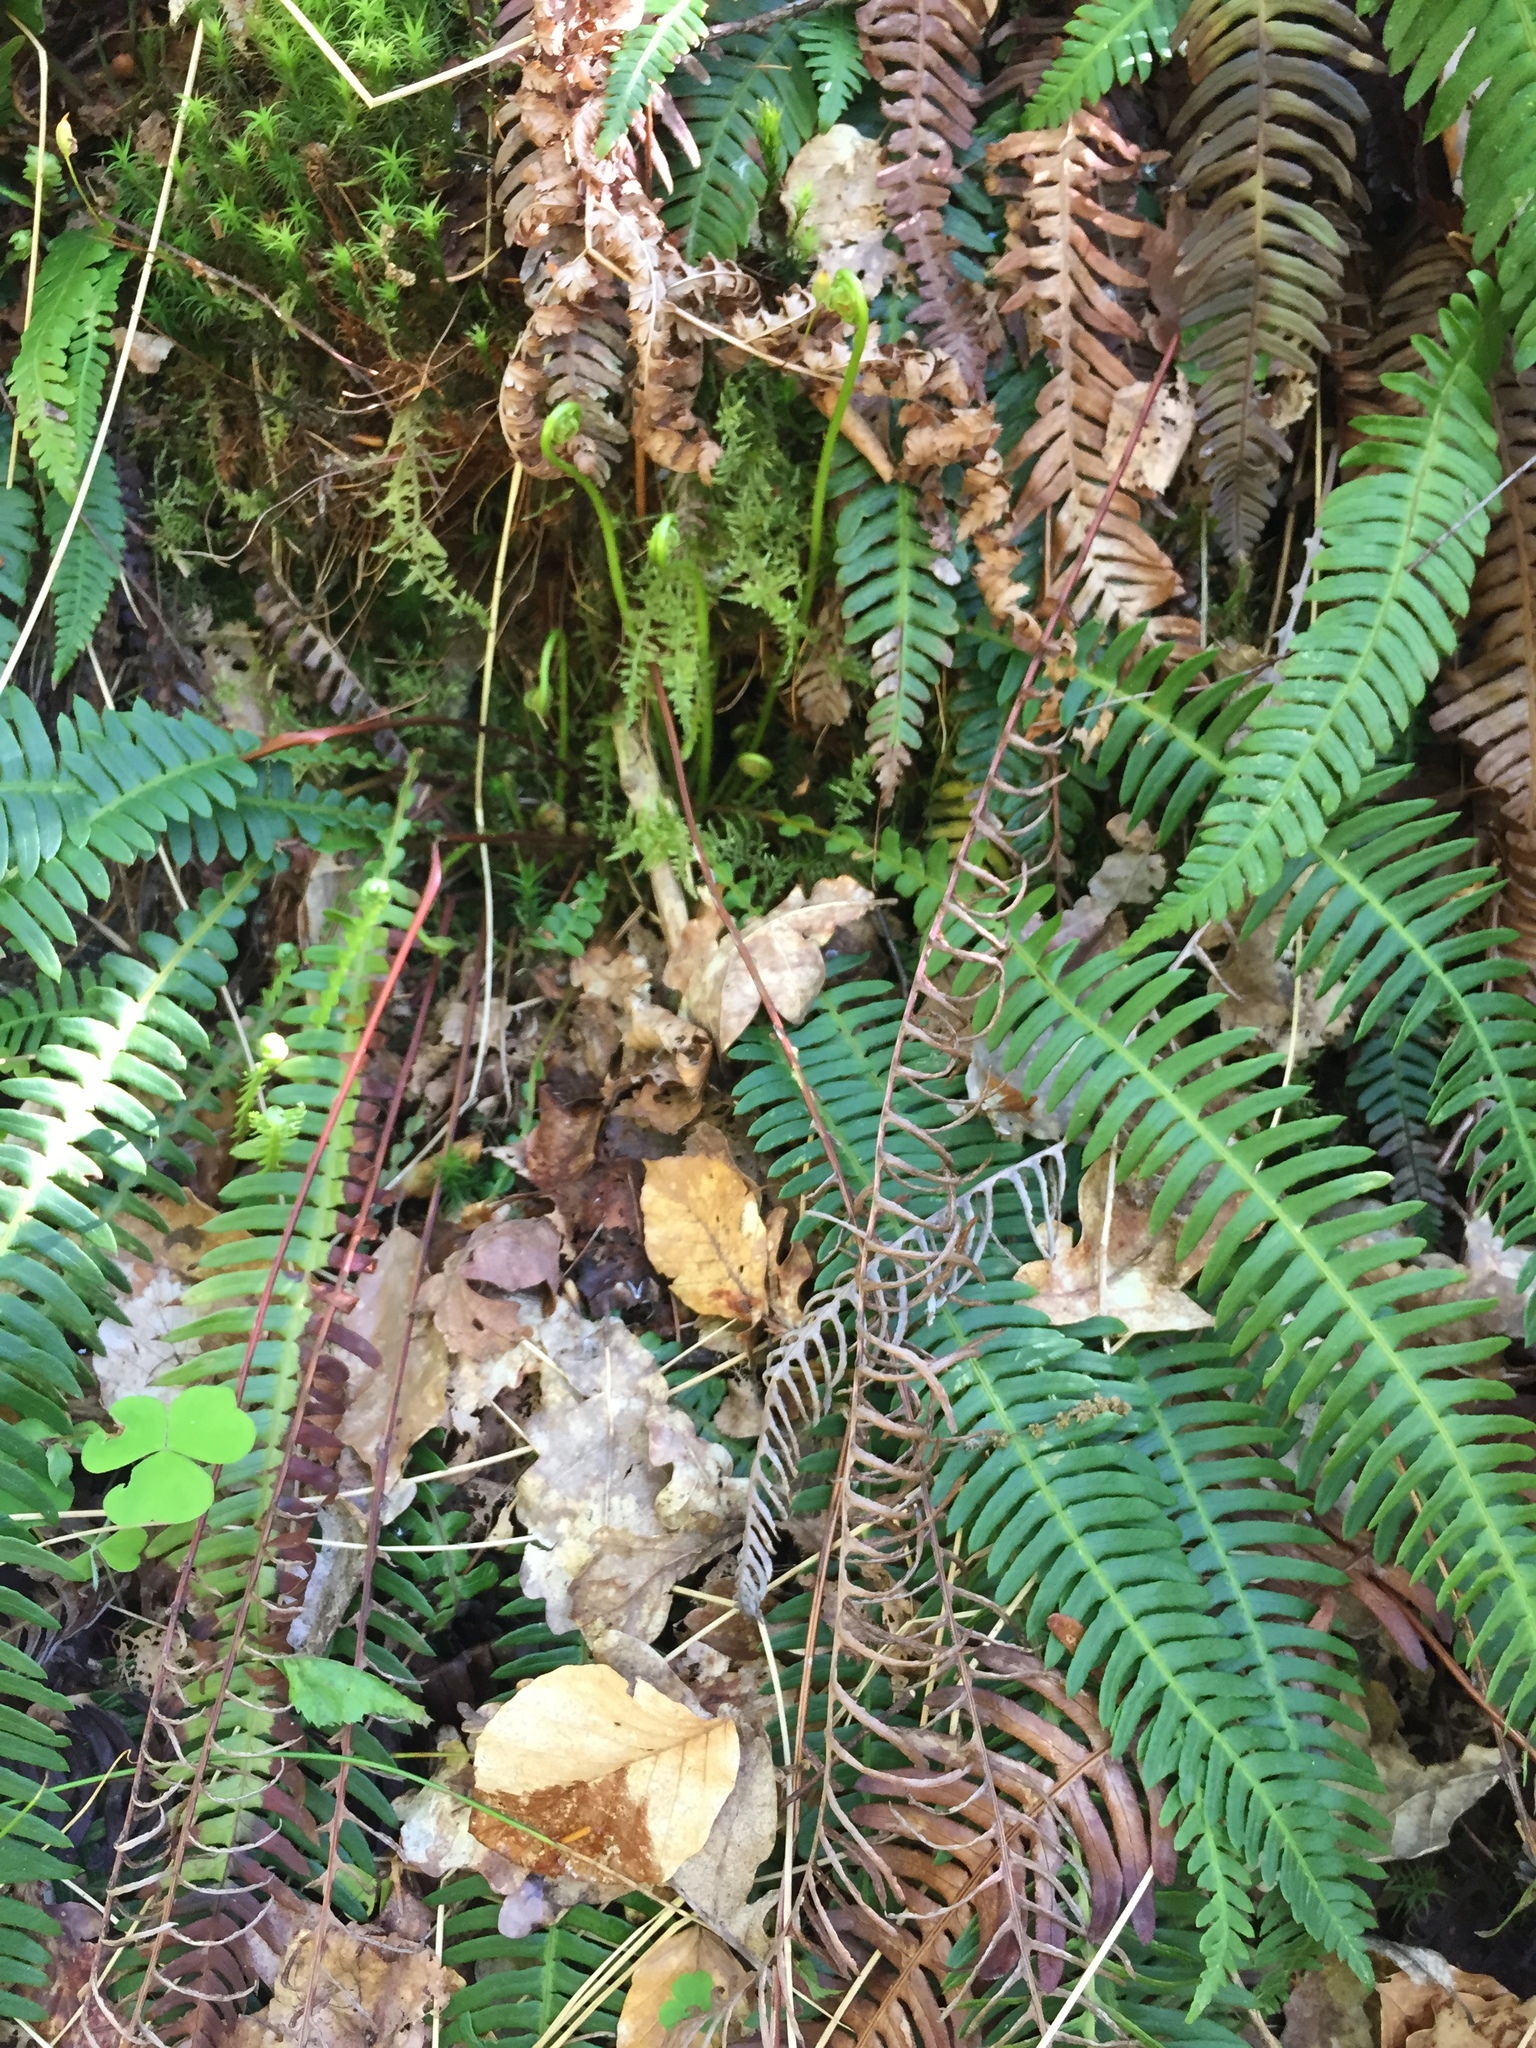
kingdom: Plantae
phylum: Tracheophyta
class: Polypodiopsida
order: Polypodiales
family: Blechnaceae
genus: Struthiopteris
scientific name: Struthiopteris spicant
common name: Deer fern
